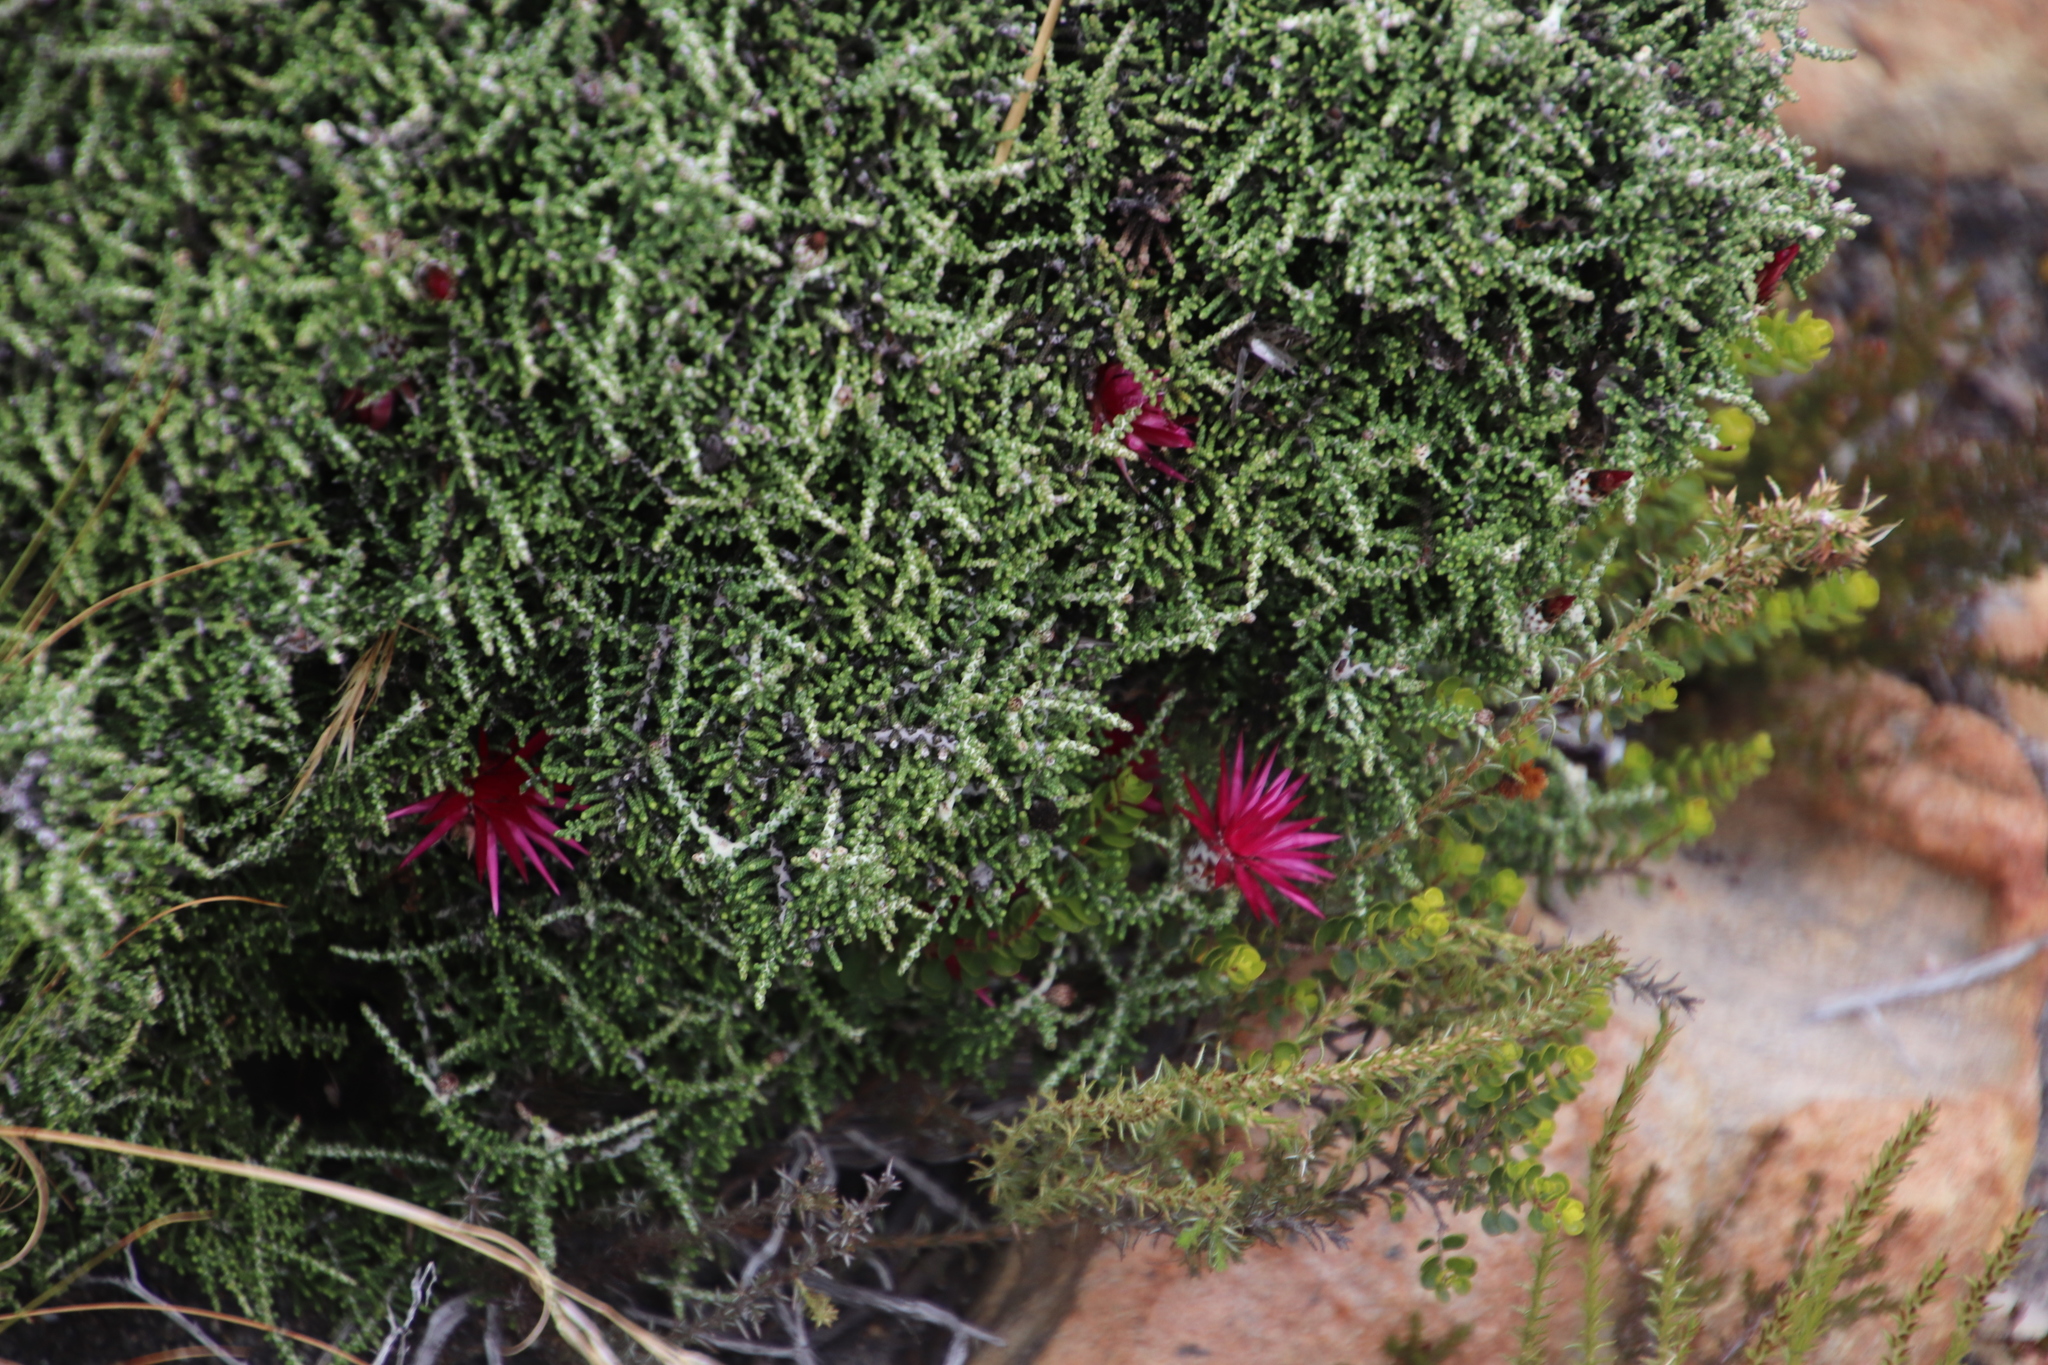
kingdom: Plantae
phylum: Tracheophyta
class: Magnoliopsida
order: Asterales
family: Asteraceae
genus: Phaenocoma
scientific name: Phaenocoma prolifera
